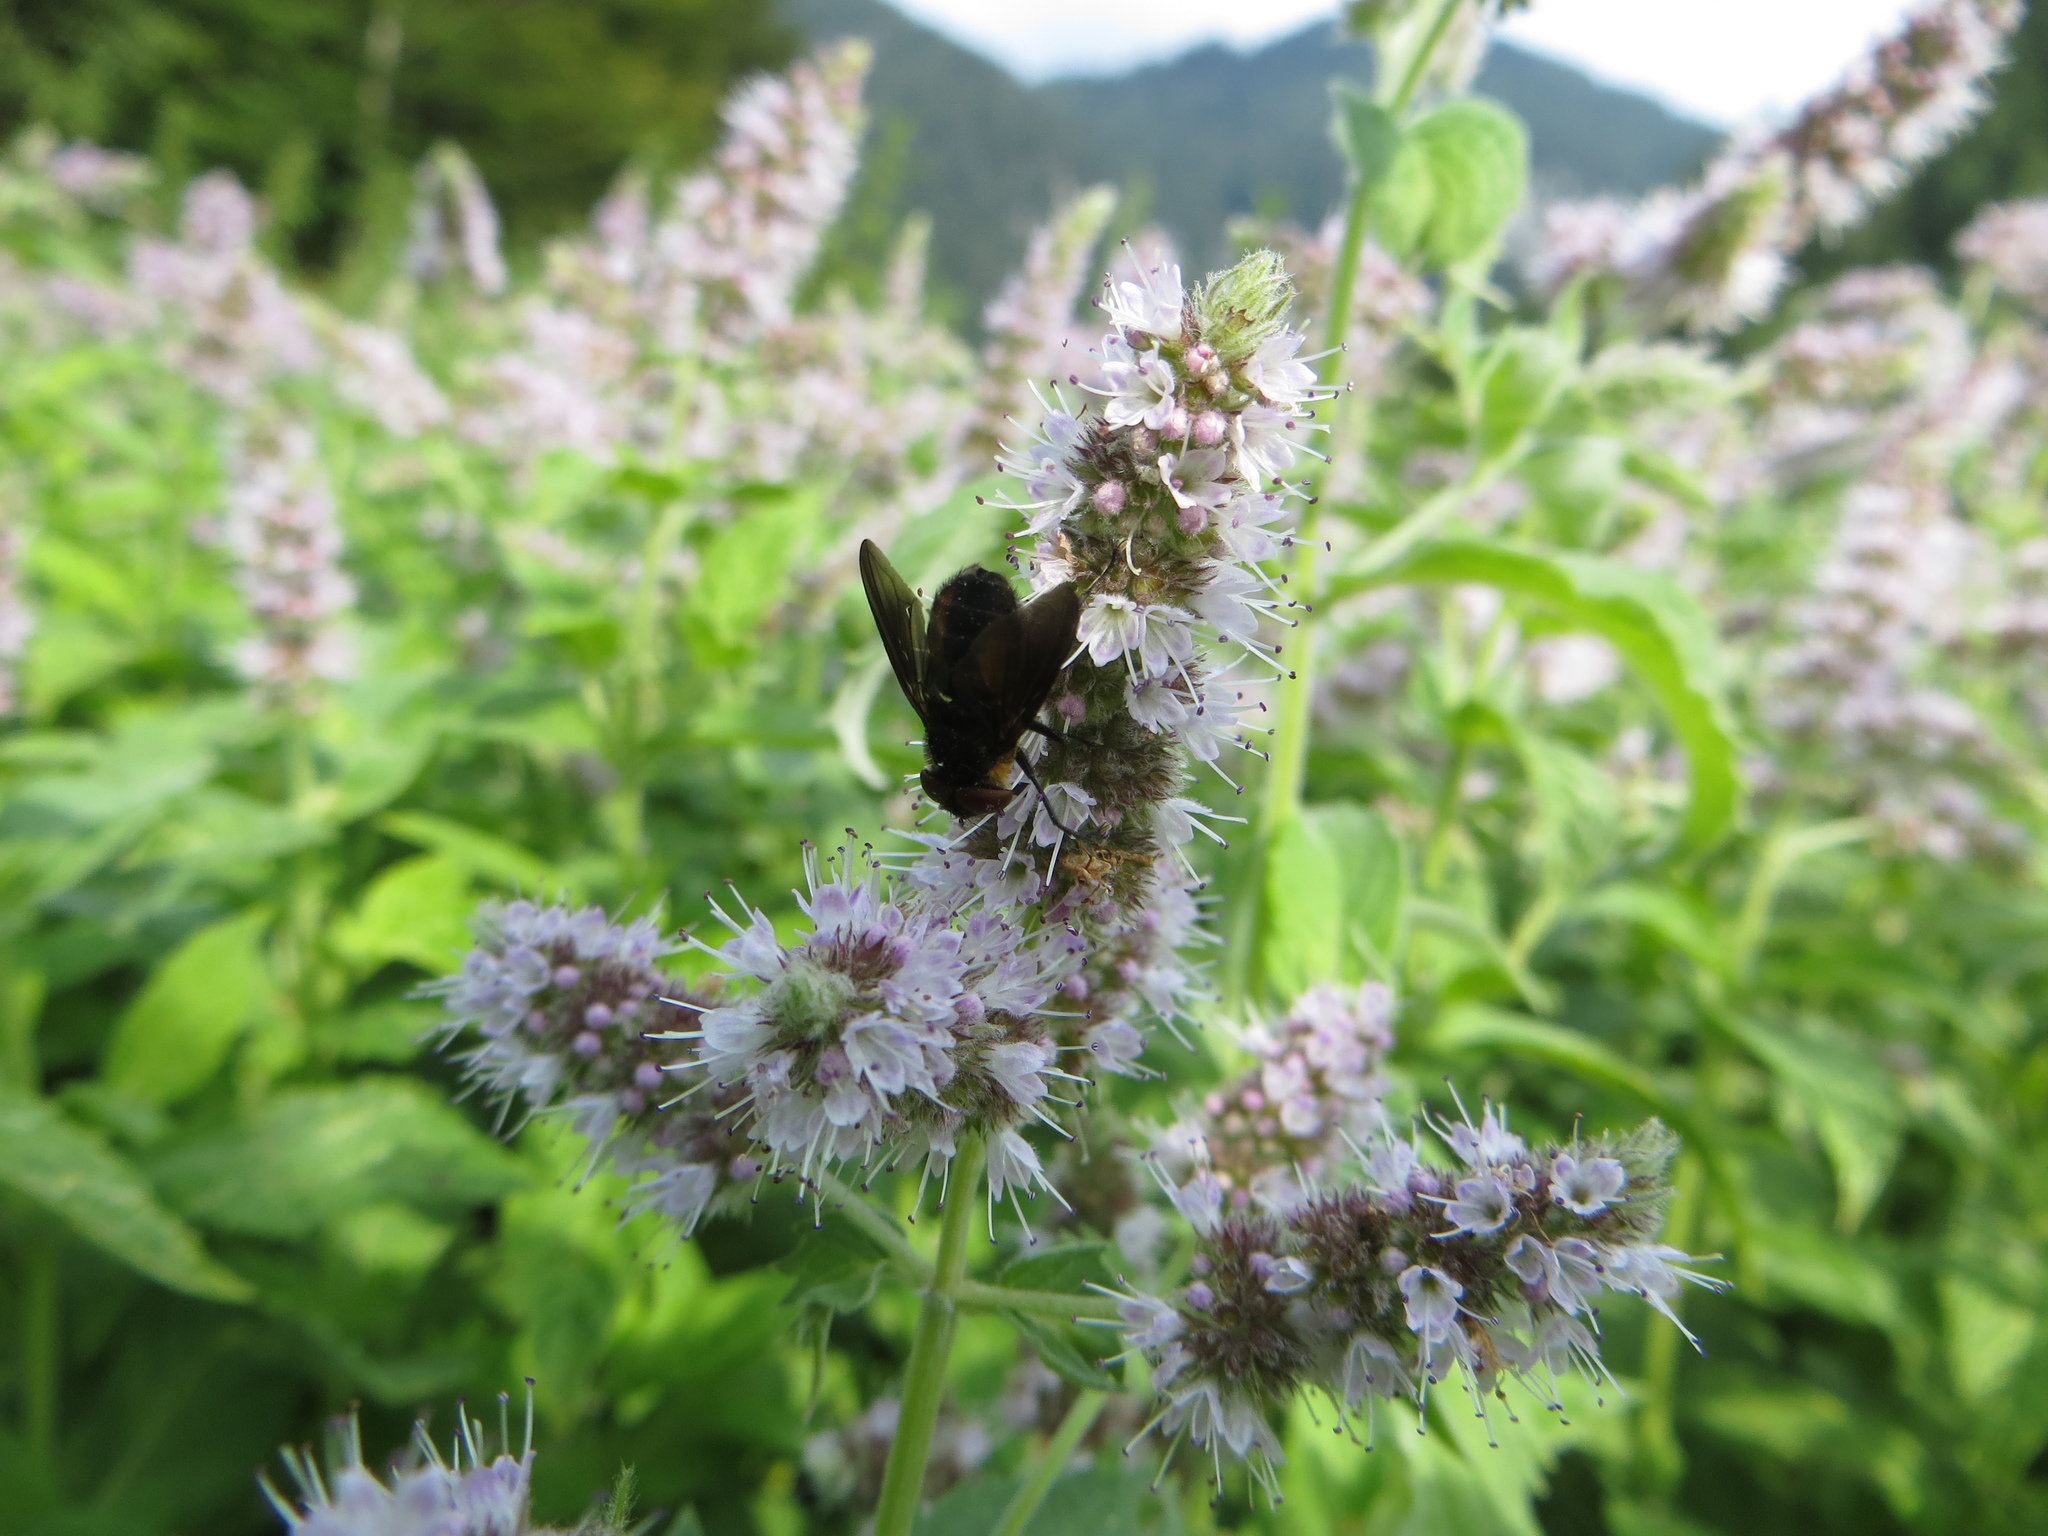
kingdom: Animalia
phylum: Arthropoda
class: Insecta
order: Diptera
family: Tachinidae
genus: Phasia
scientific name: Phasia hemiptera
